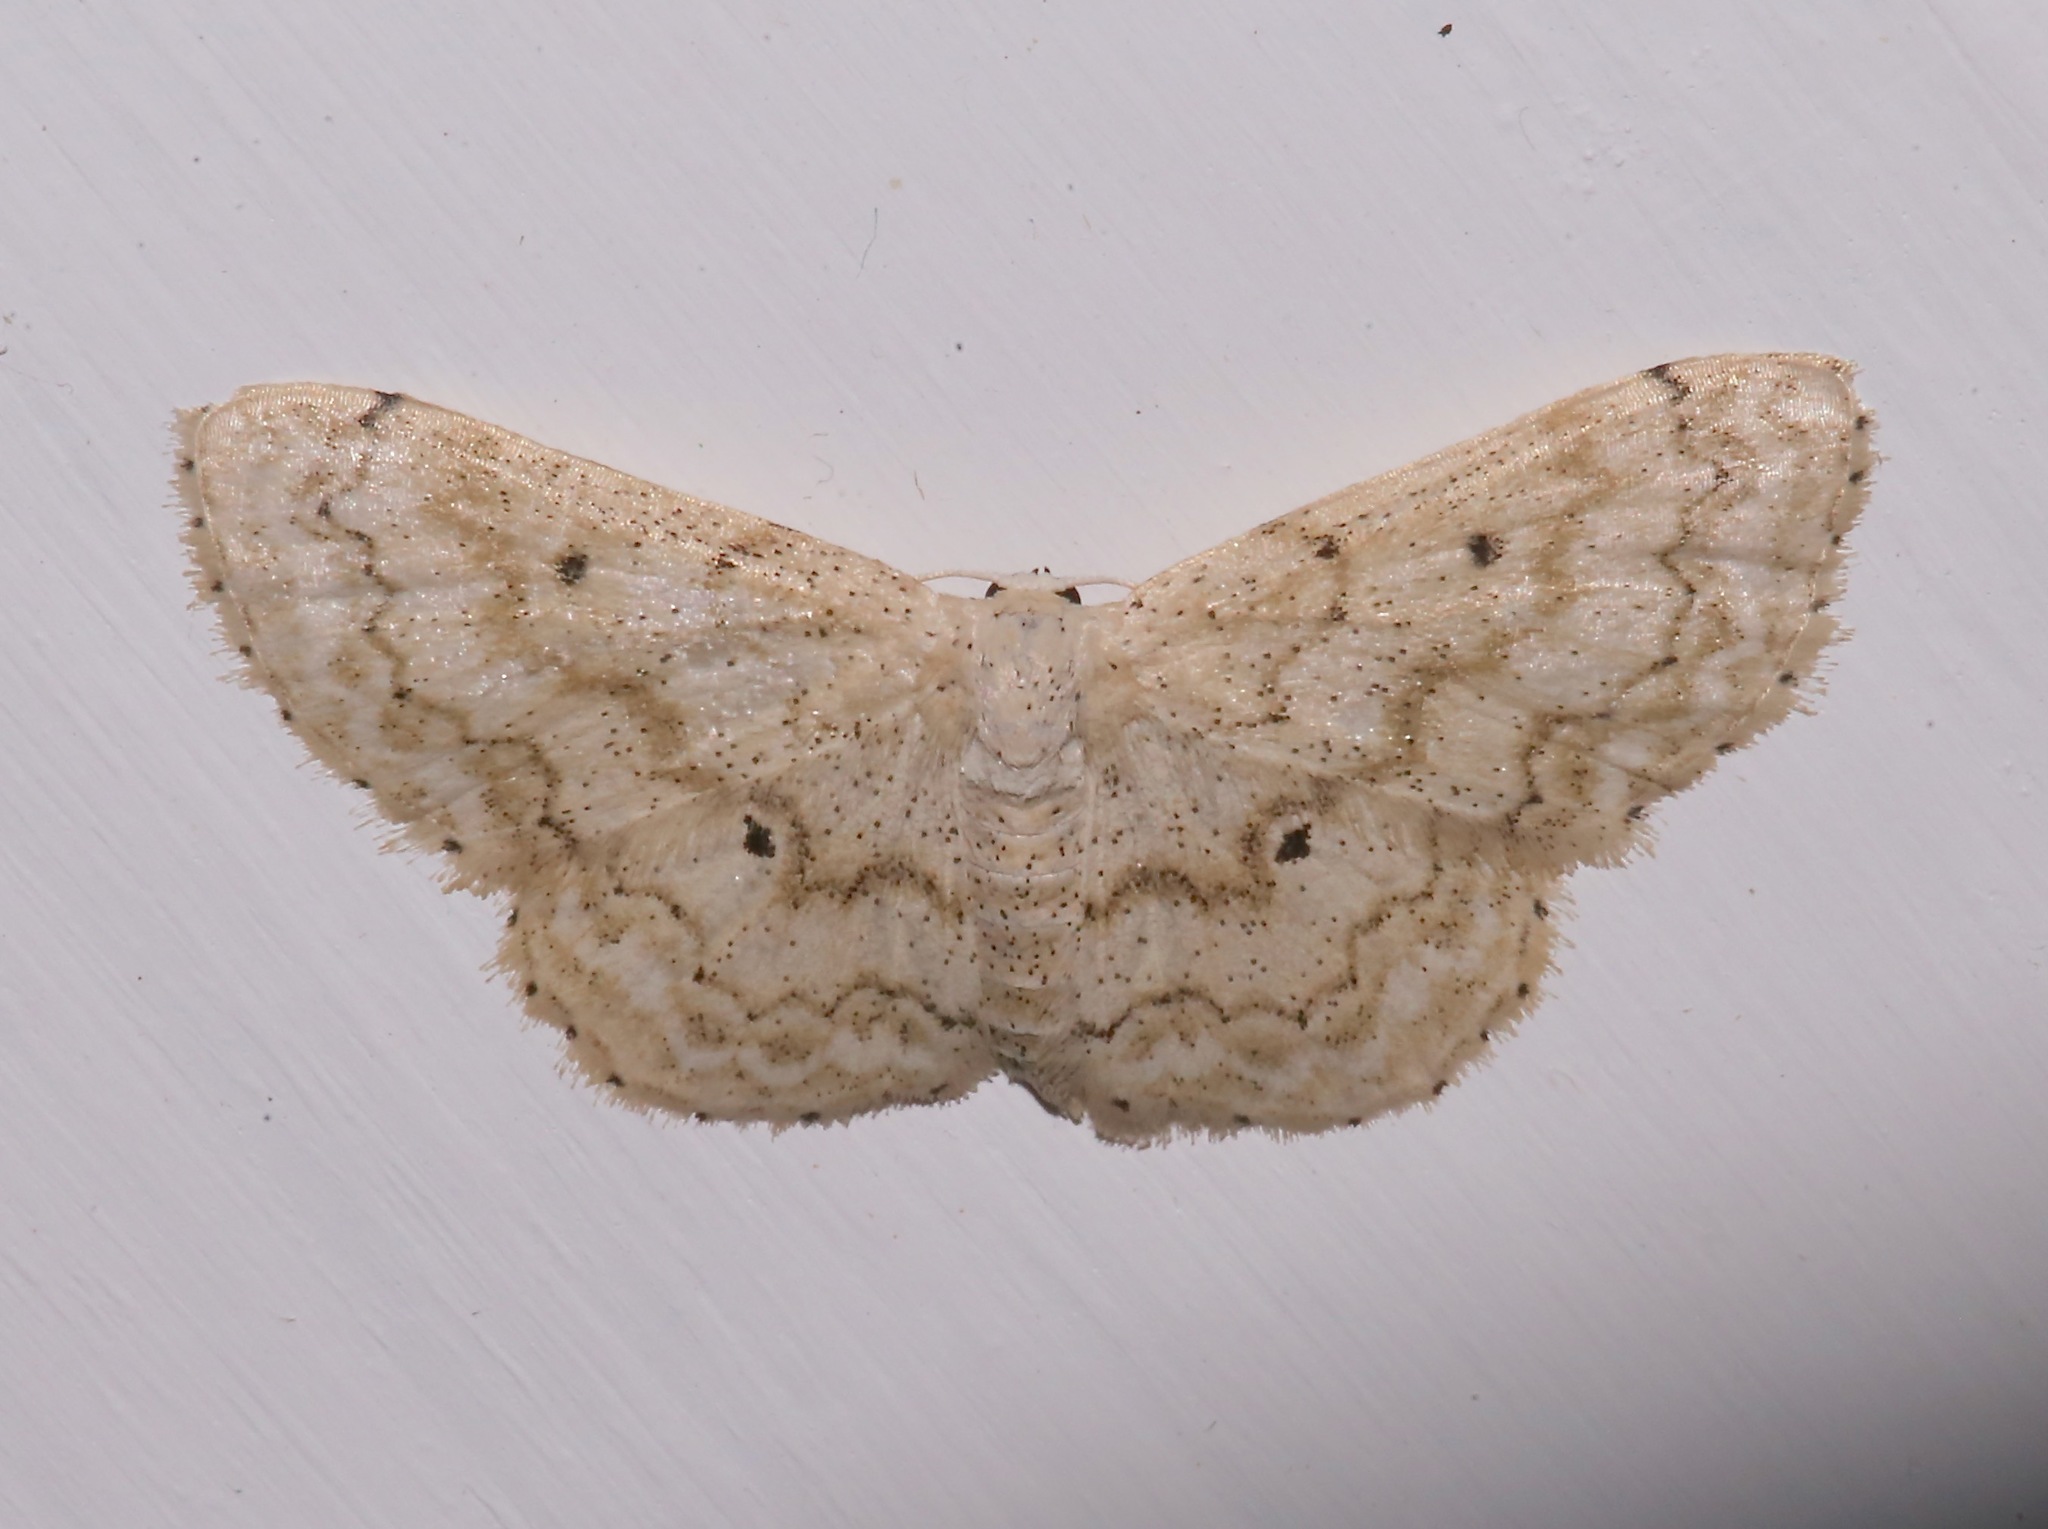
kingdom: Animalia
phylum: Arthropoda
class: Insecta
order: Lepidoptera
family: Geometridae
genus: Idaea
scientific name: Idaea obfusaria
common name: Rippled wave
